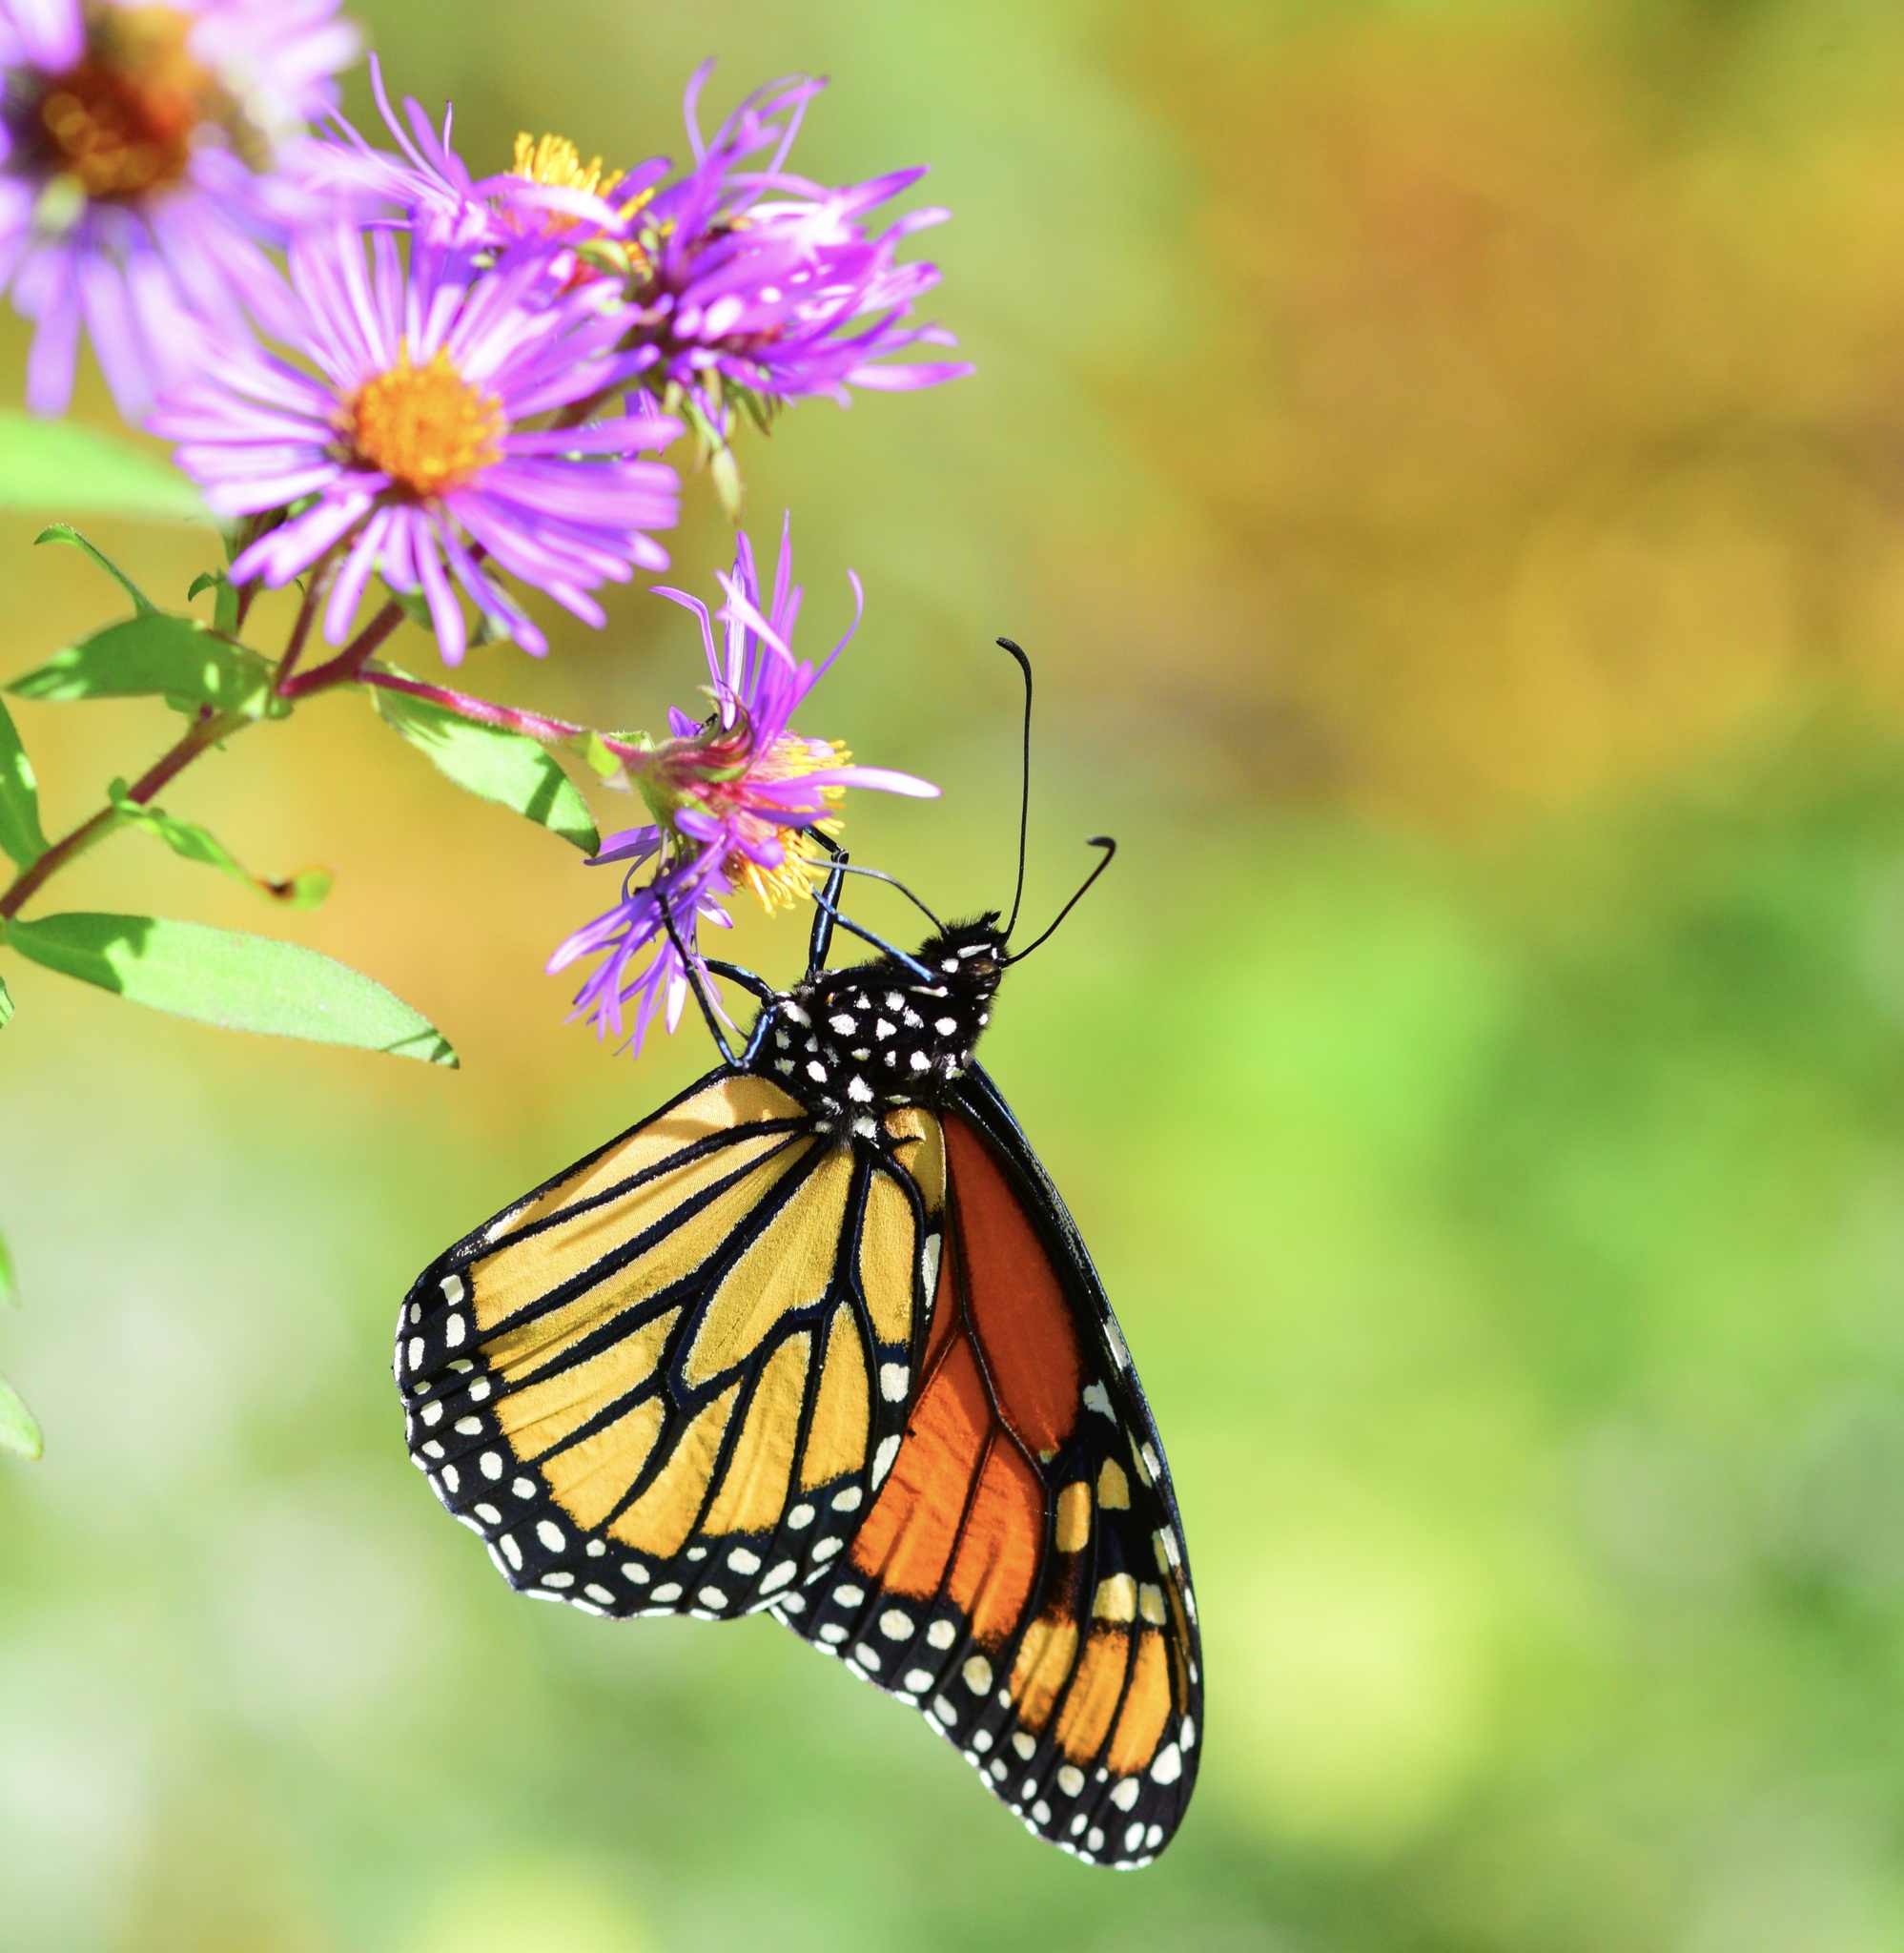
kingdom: Animalia
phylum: Arthropoda
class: Insecta
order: Lepidoptera
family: Nymphalidae
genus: Danaus
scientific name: Danaus plexippus
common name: Monarch
